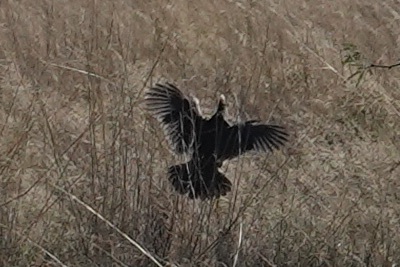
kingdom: Animalia
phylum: Chordata
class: Aves
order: Galliformes
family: Odontophoridae
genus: Callipepla
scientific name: Callipepla squamata
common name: Scaled quail
